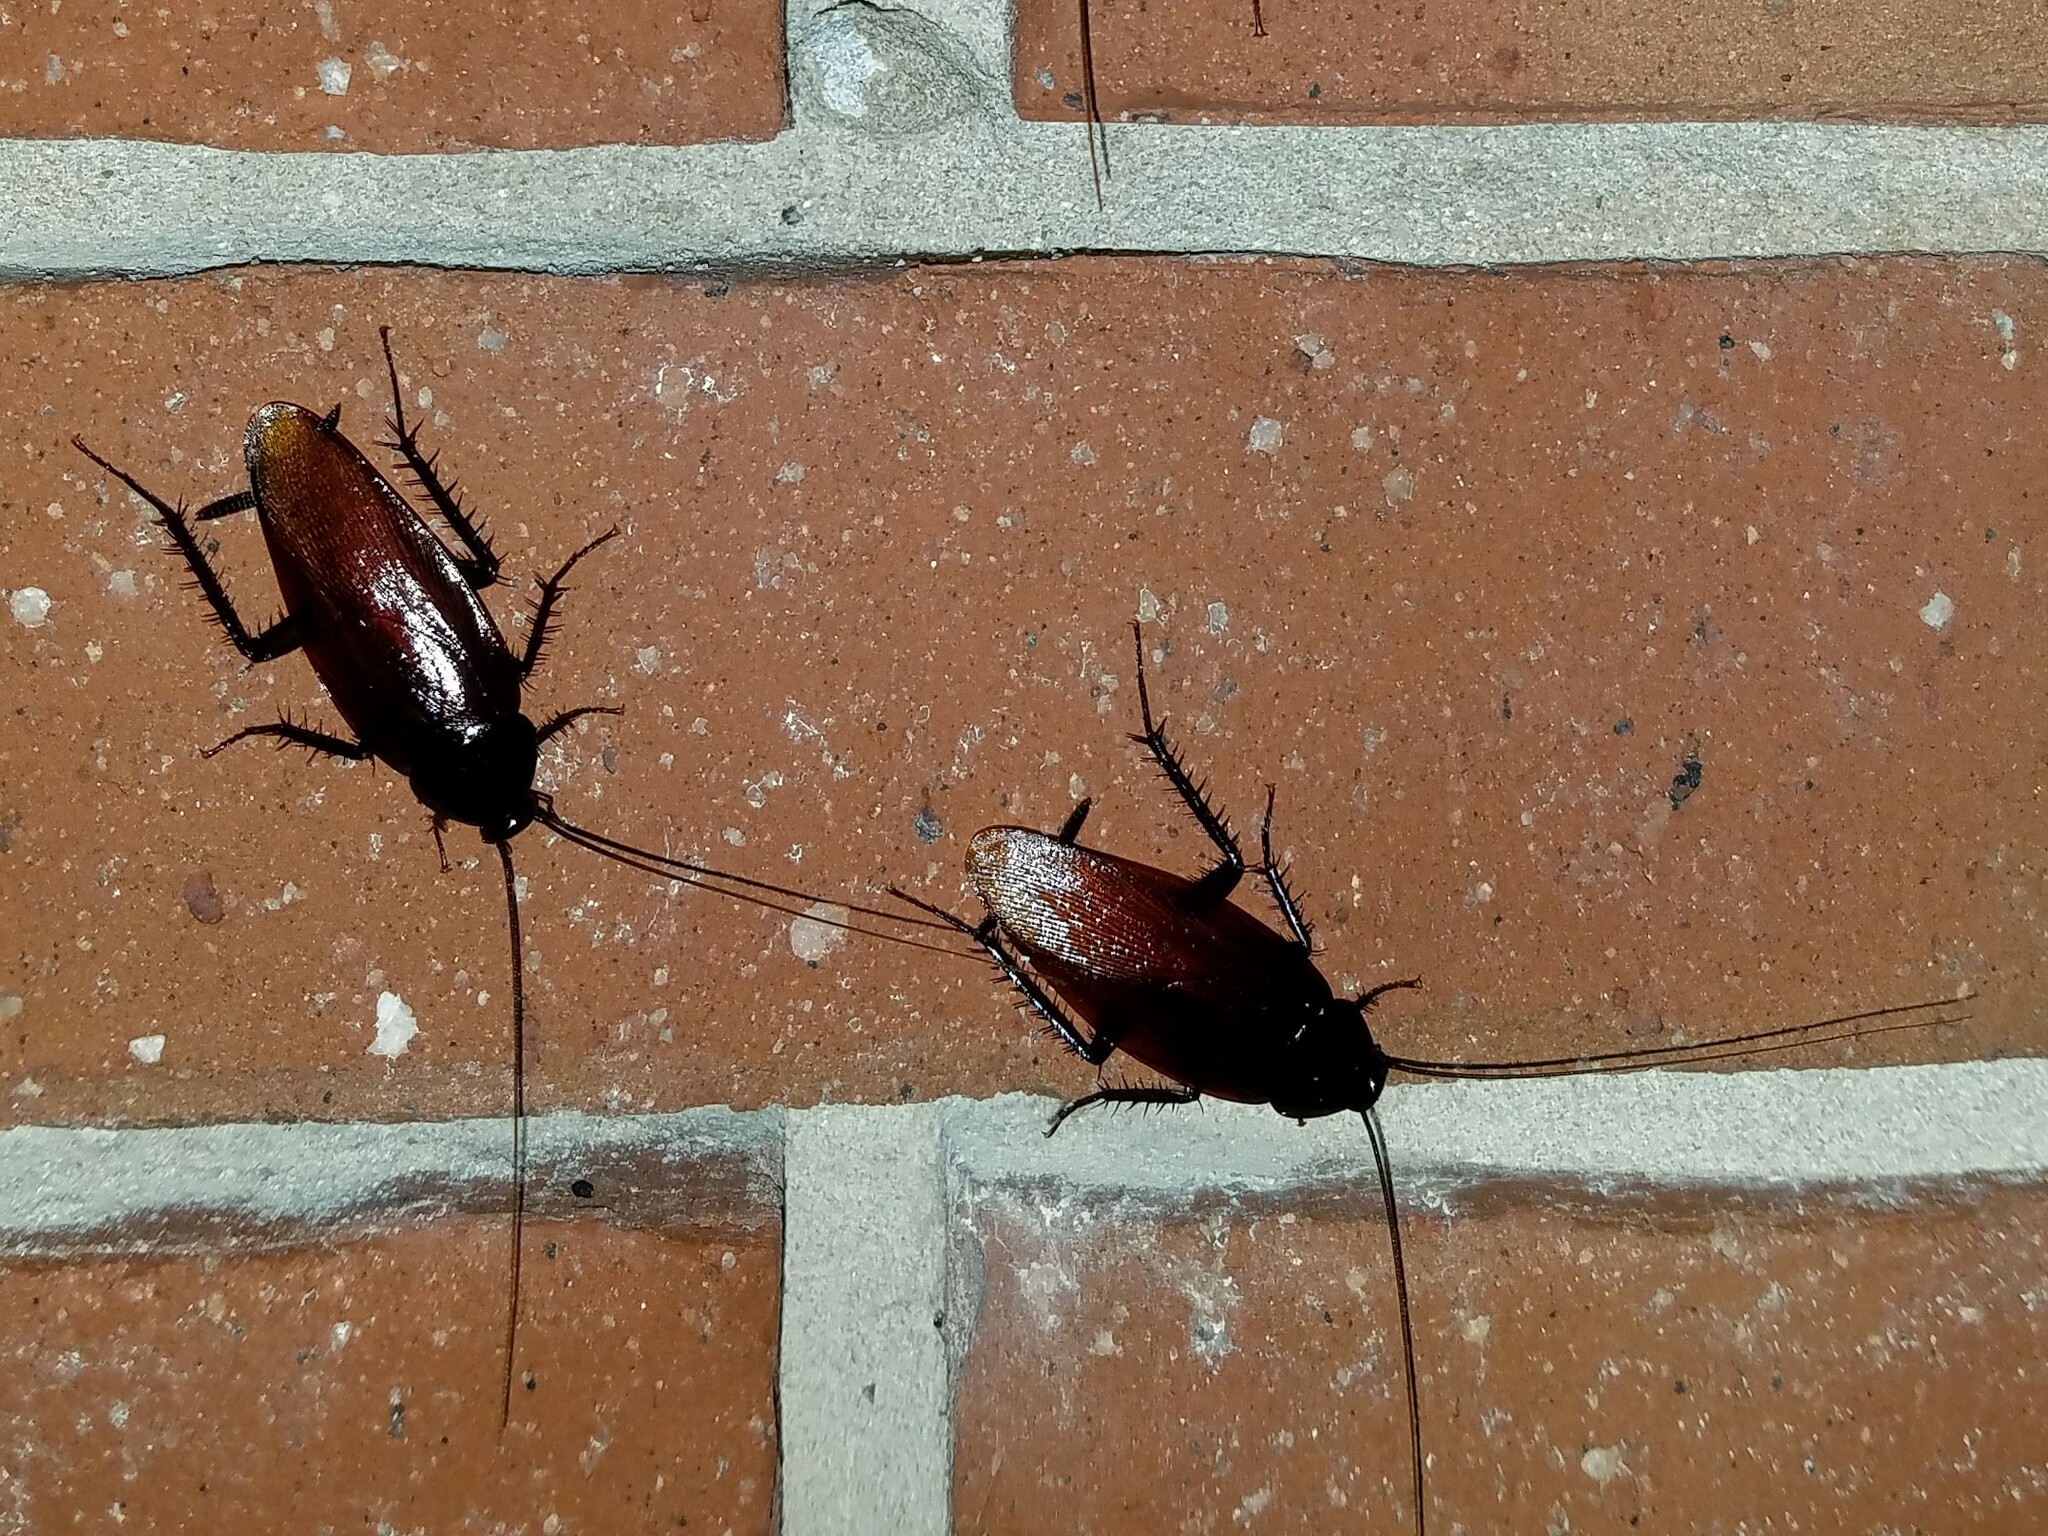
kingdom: Animalia
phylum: Arthropoda
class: Insecta
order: Blattodea
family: Blattidae
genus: Periplaneta
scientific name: Periplaneta fuliginosa
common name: Smokeybrown cockroad
